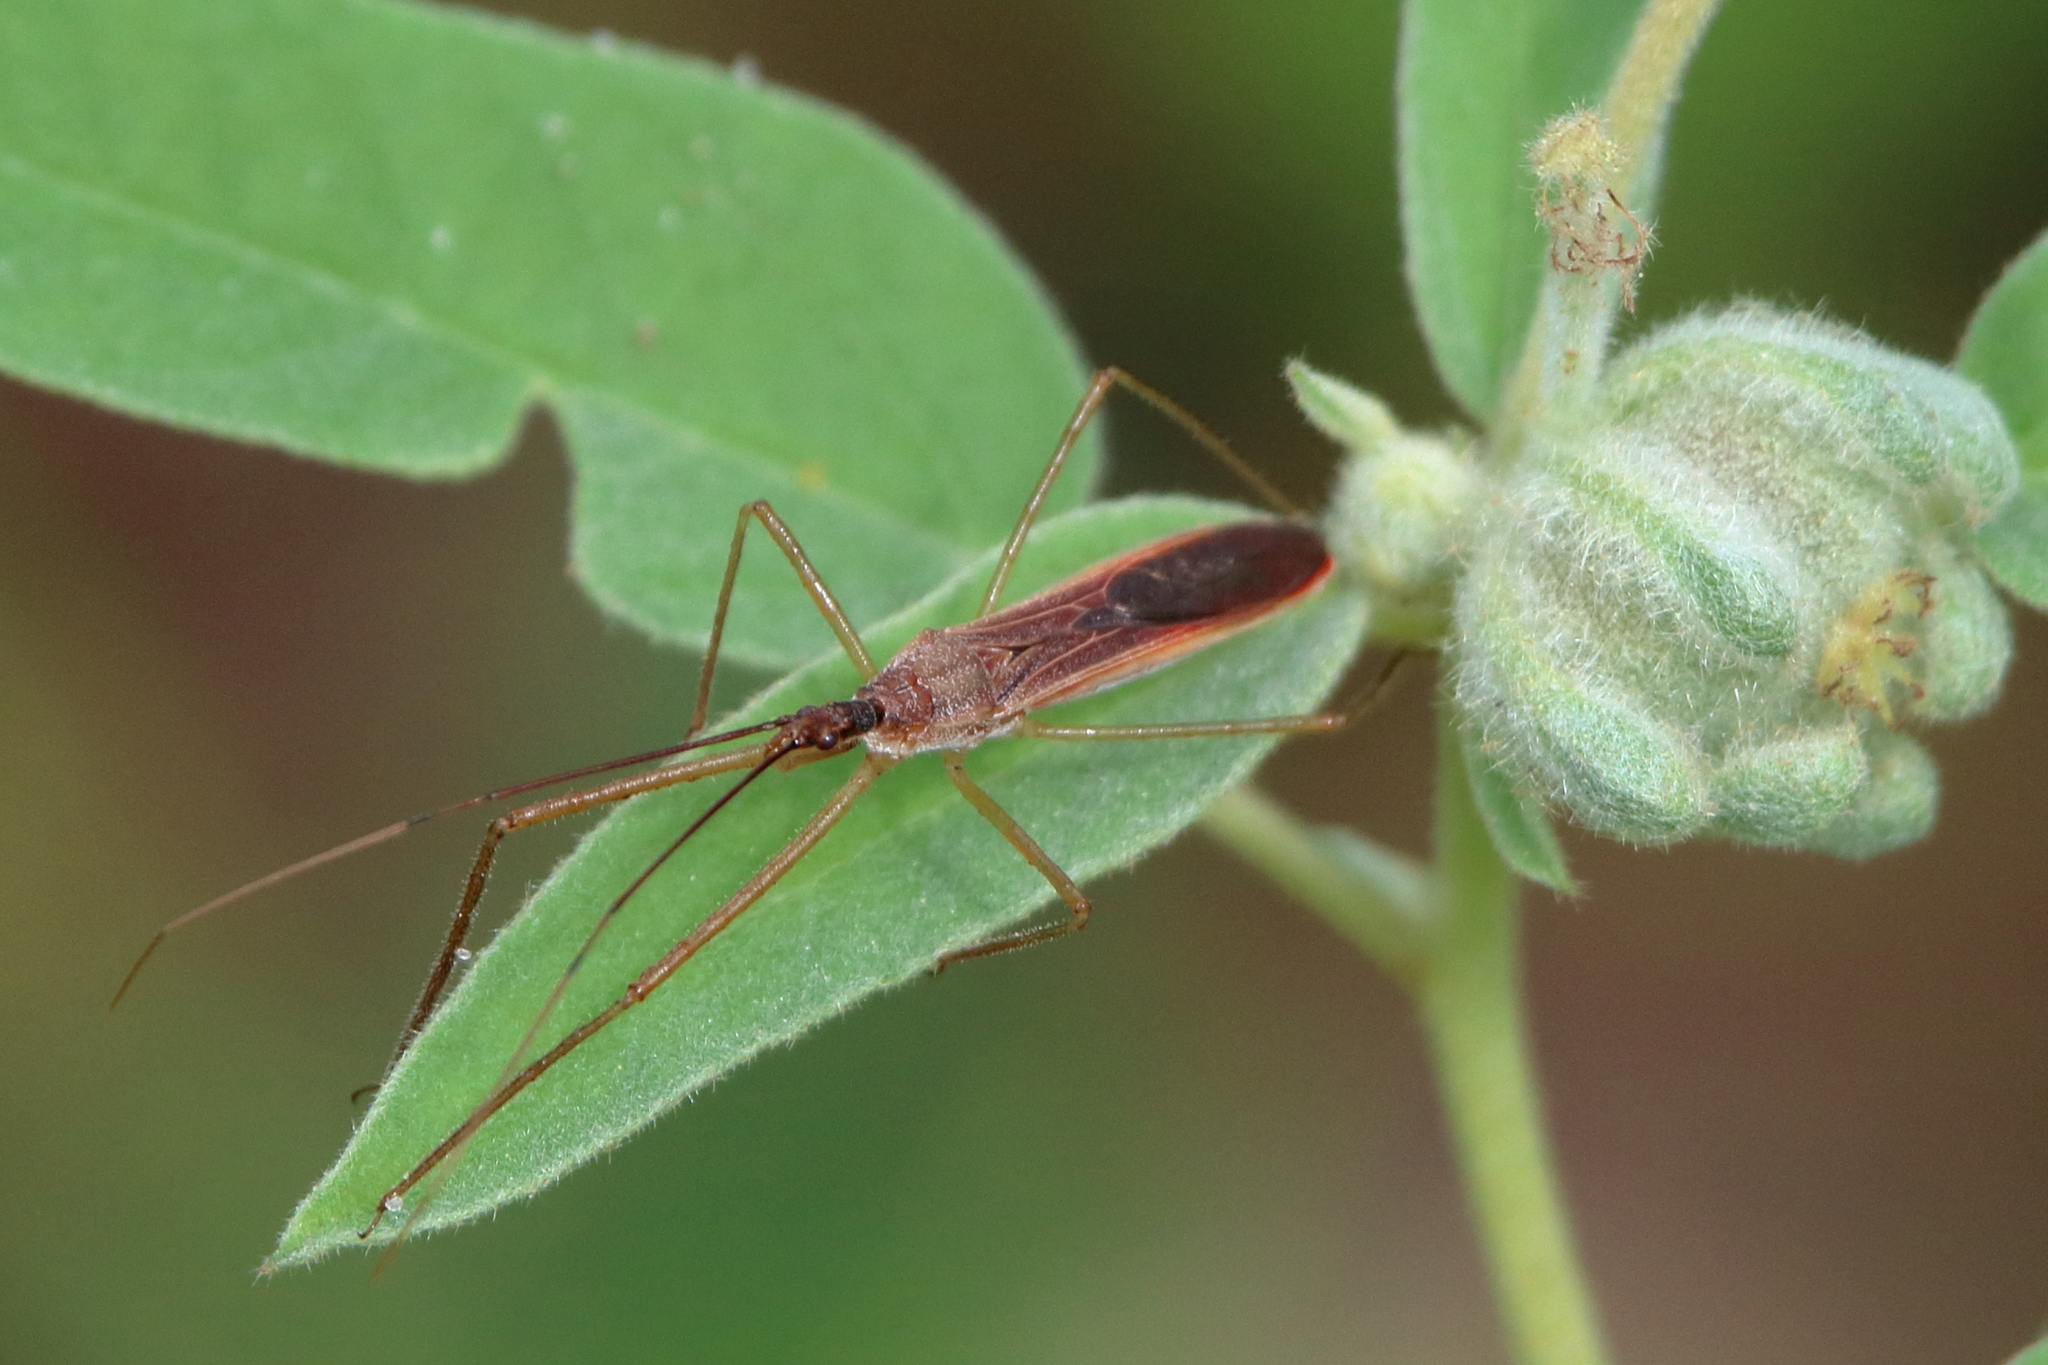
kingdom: Animalia
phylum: Arthropoda
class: Insecta
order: Hemiptera
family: Reduviidae
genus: Zelus
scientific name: Zelus cervicalis
